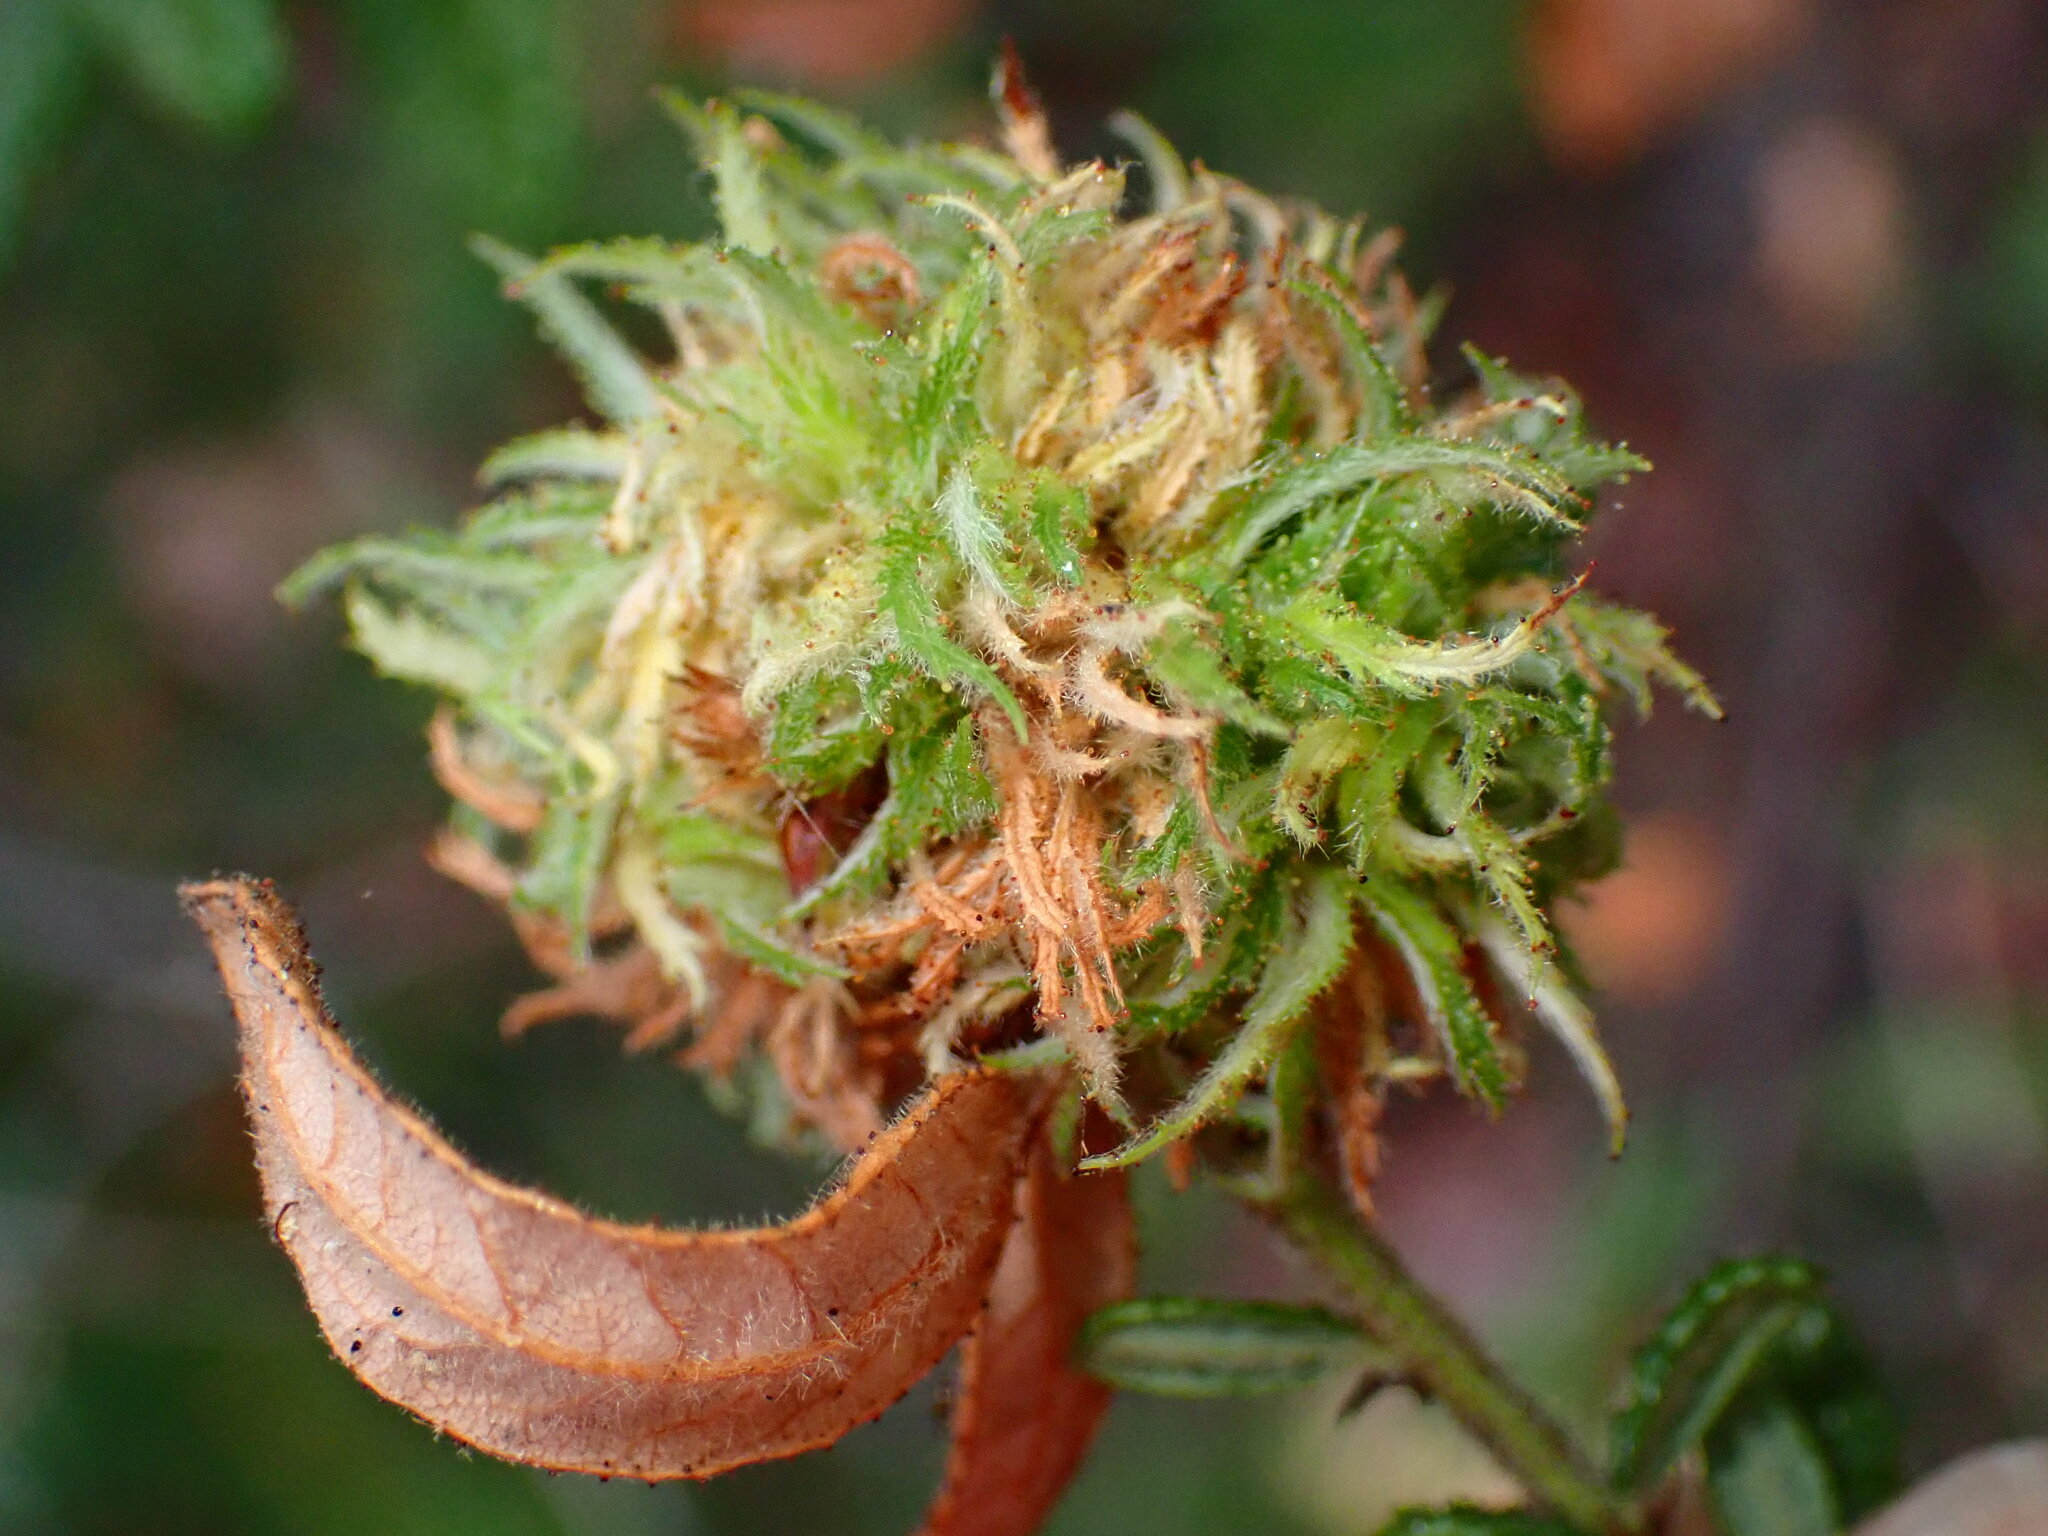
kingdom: Animalia
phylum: Arthropoda
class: Insecta
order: Diptera
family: Cecidomyiidae
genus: Asphondylia
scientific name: Asphondylia ceanothi
